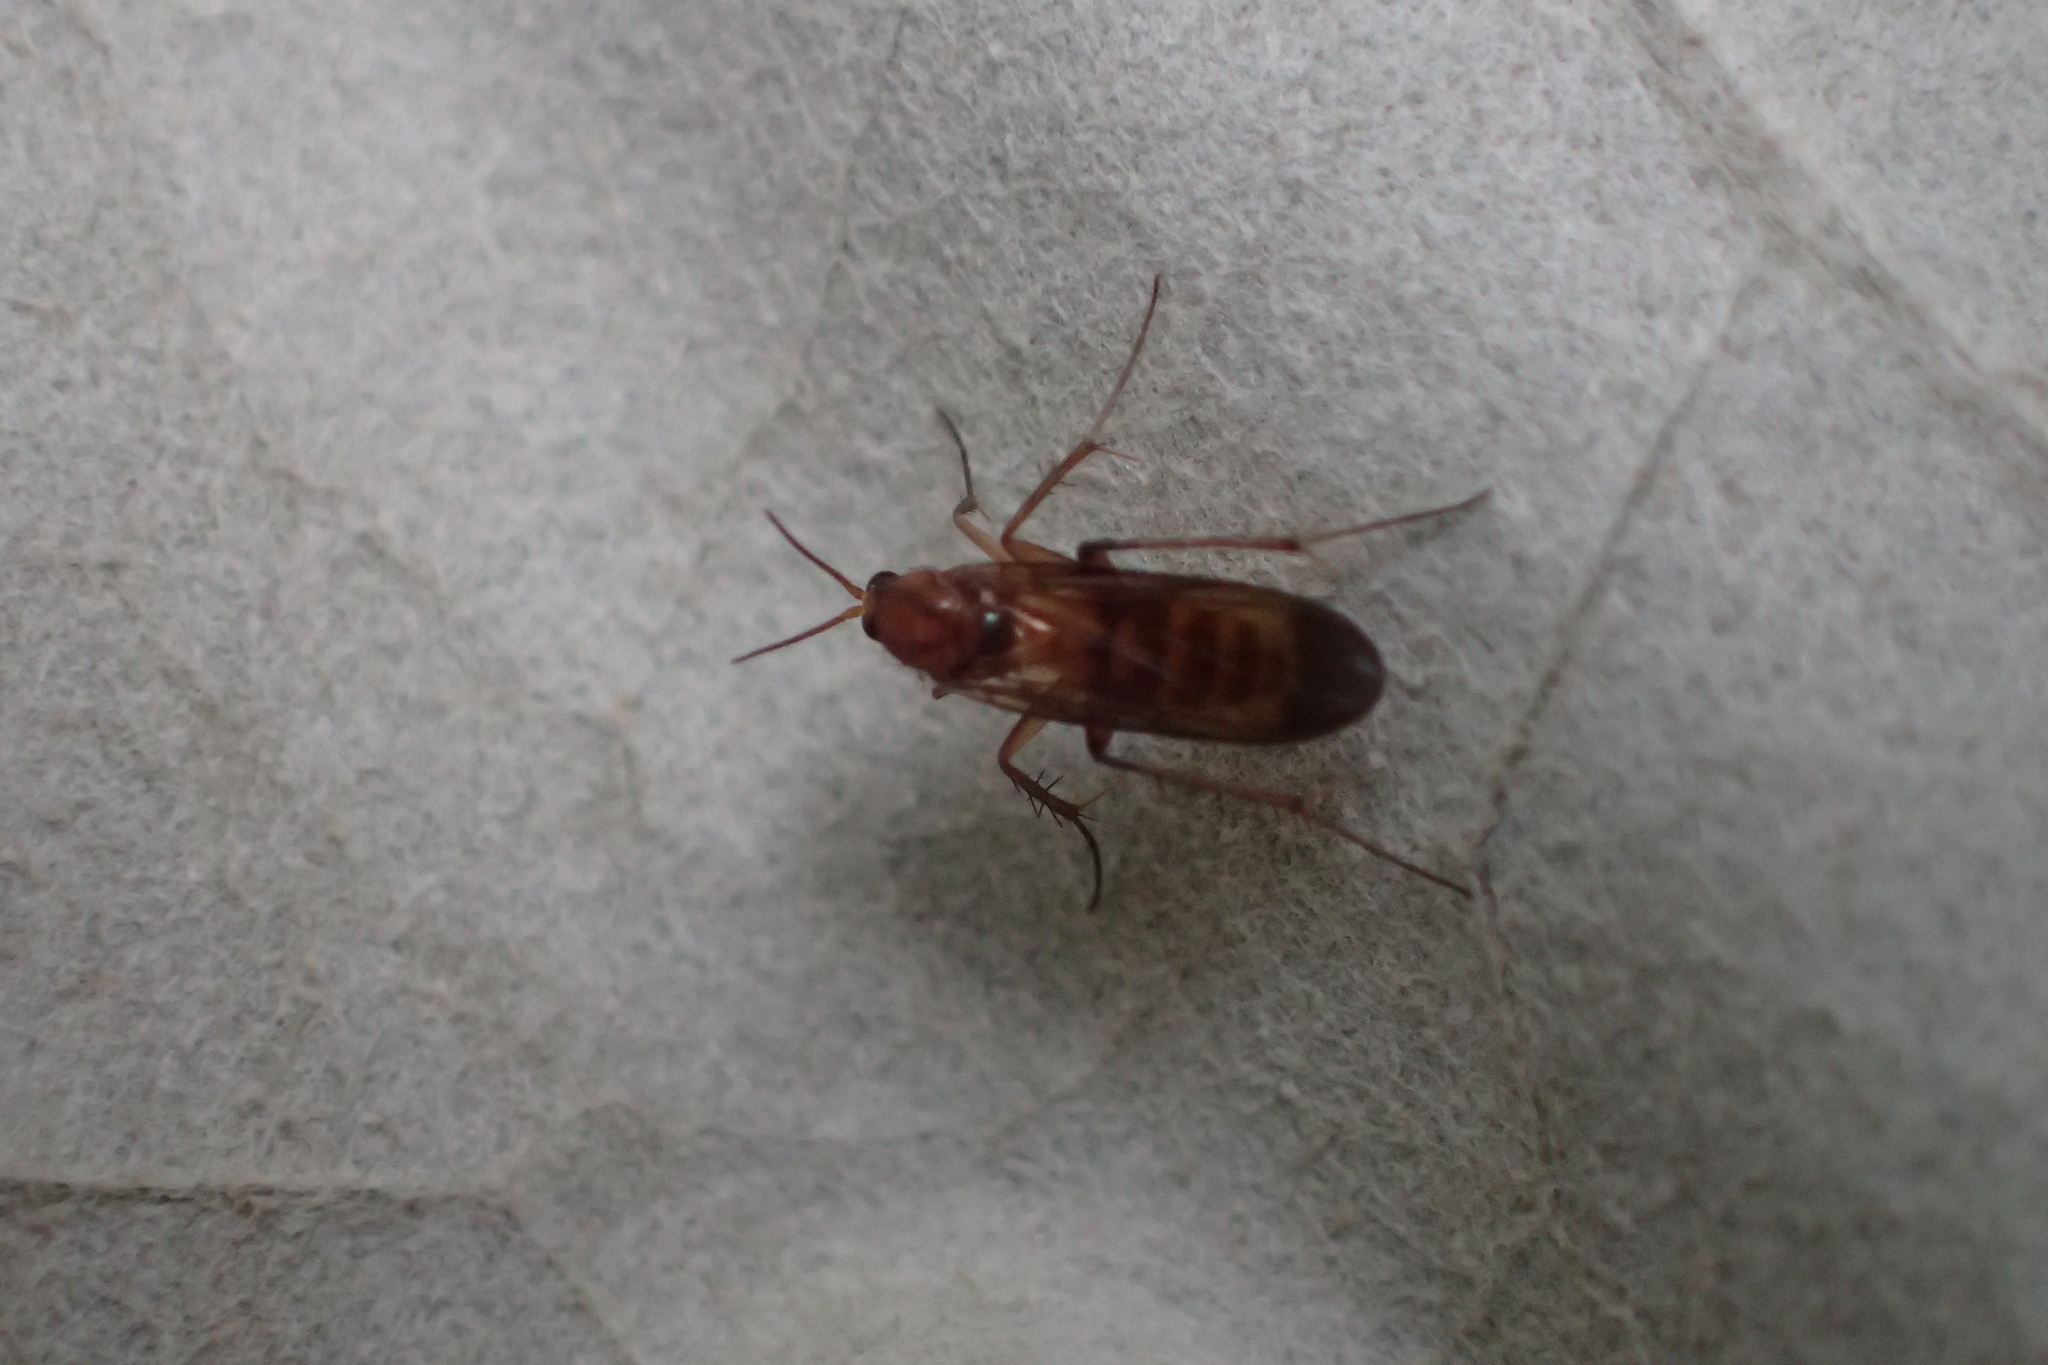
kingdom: Animalia
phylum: Arthropoda
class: Insecta
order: Diptera
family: Mycetophilidae
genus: Anomalomyia
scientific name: Anomalomyia thompsoni
